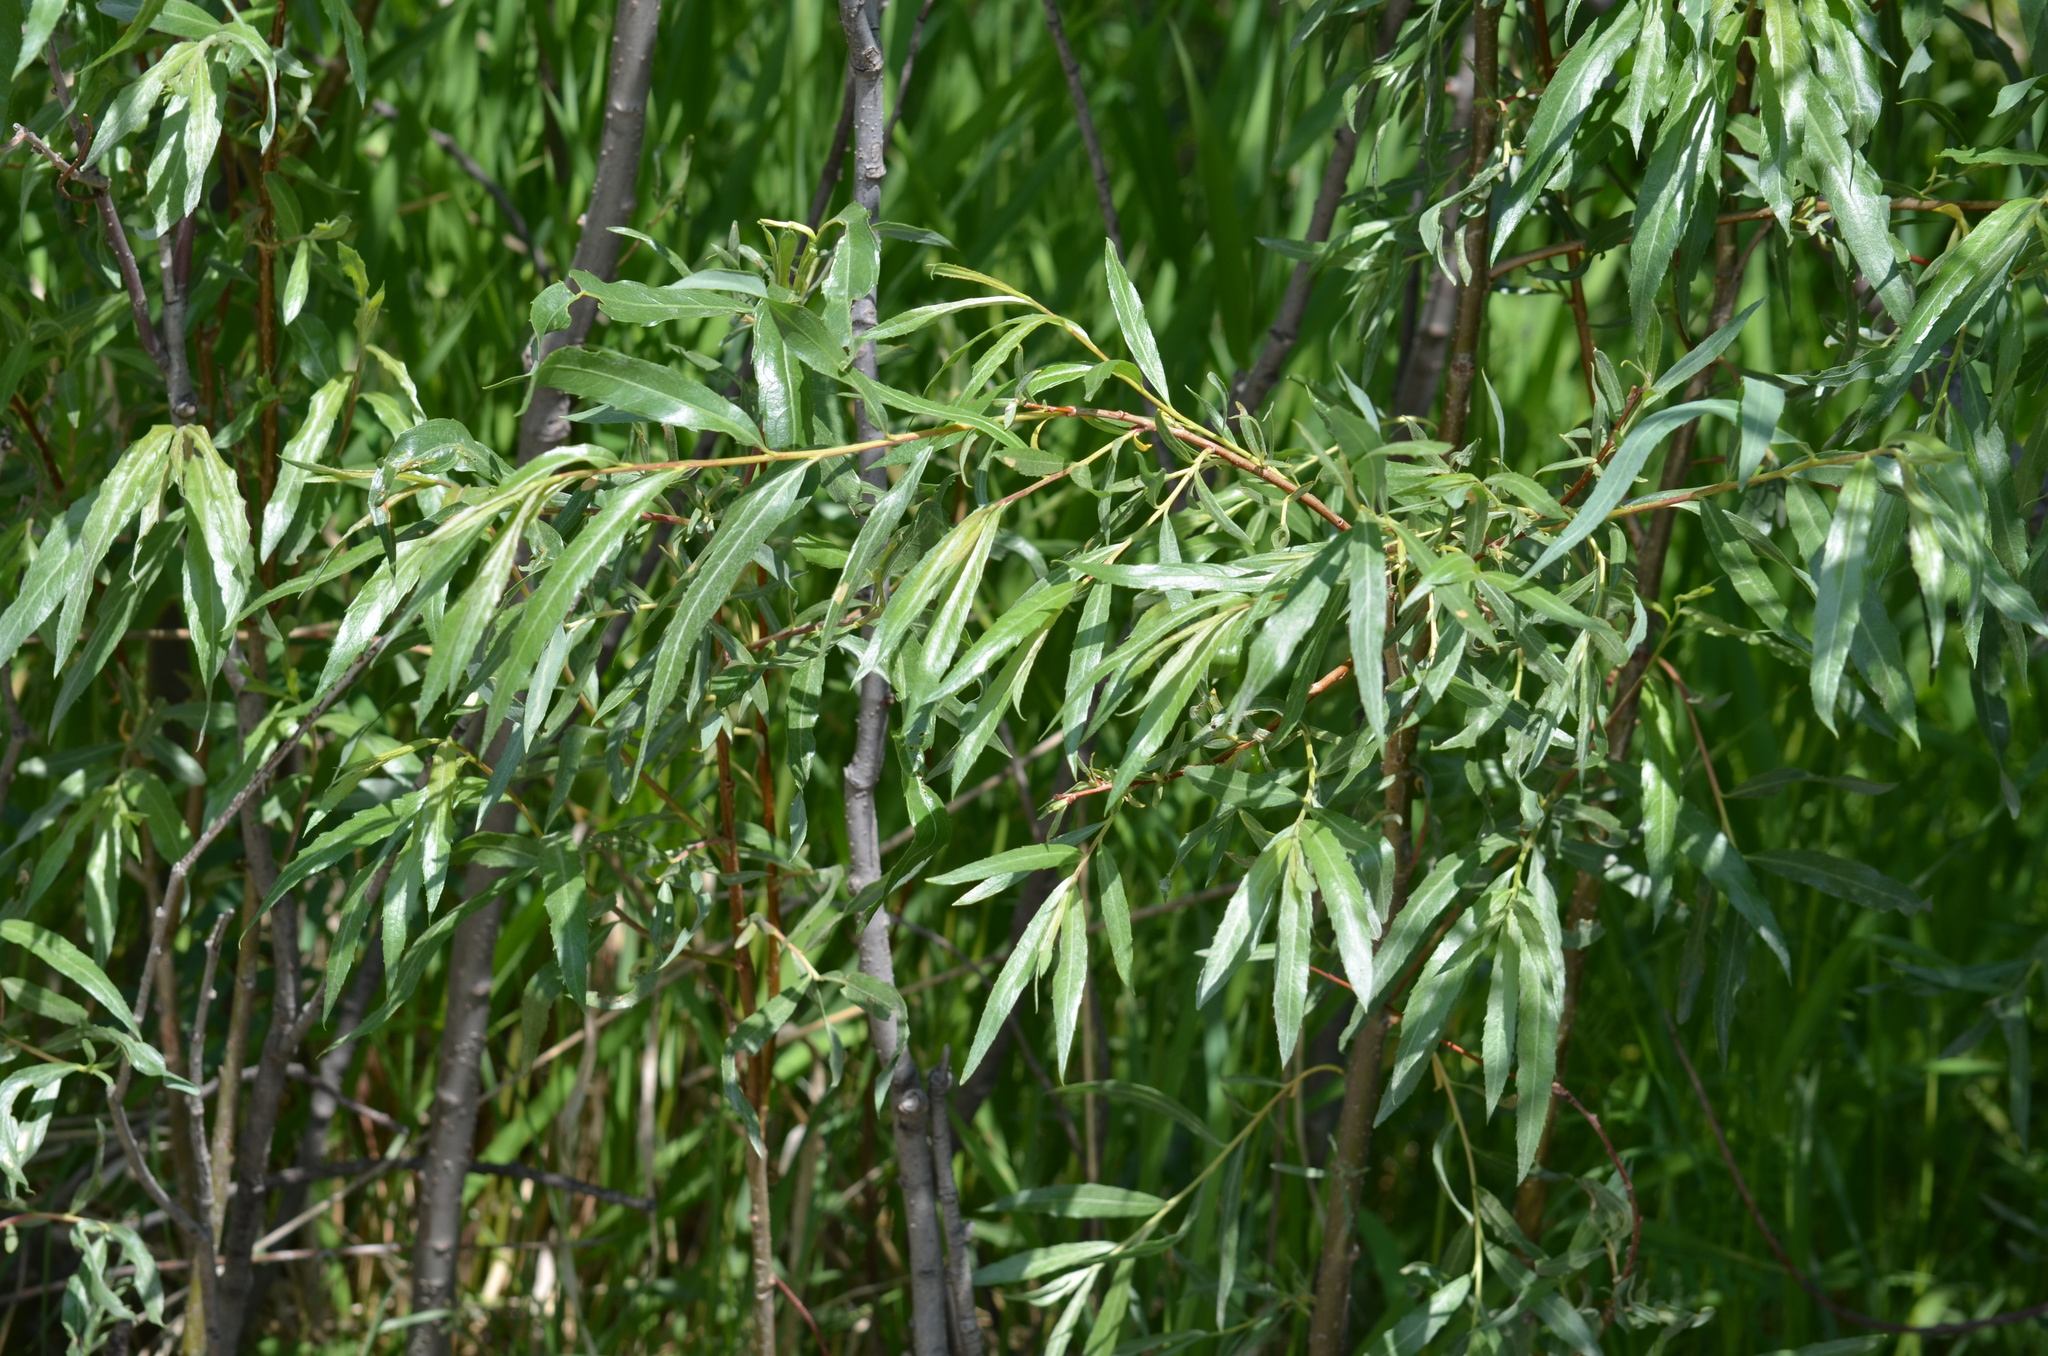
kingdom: Plantae
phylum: Tracheophyta
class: Magnoliopsida
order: Malpighiales
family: Salicaceae
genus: Salix
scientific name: Salix interior
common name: Sandbar willow
